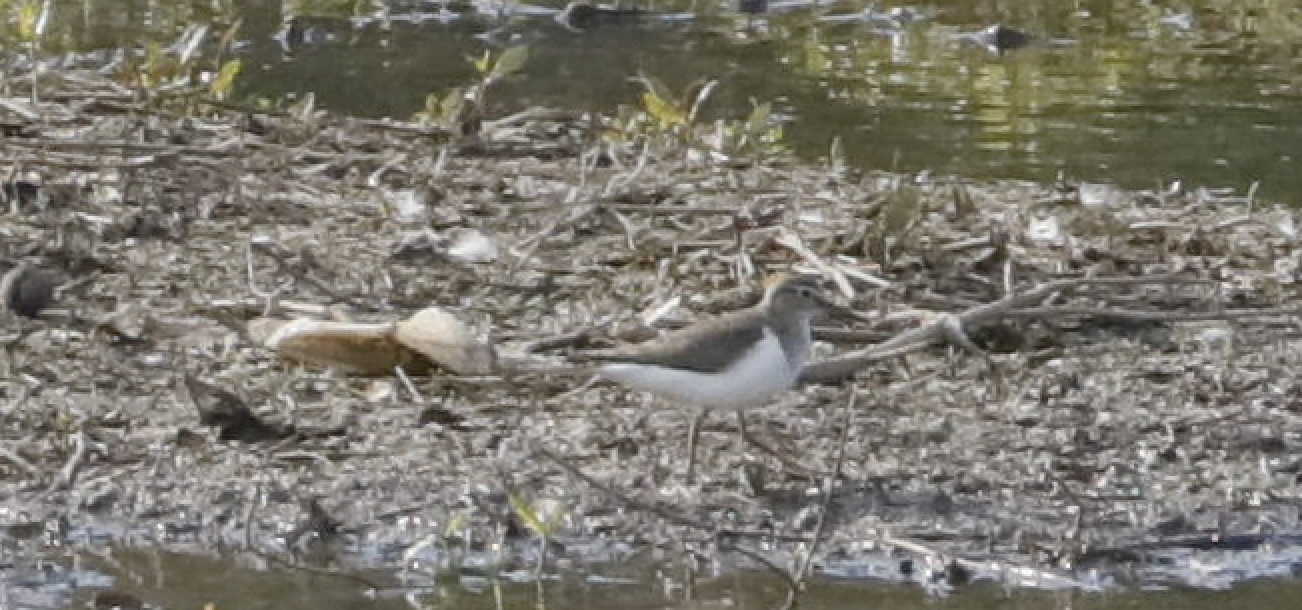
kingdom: Animalia
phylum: Chordata
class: Aves
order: Charadriiformes
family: Scolopacidae
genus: Actitis
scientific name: Actitis hypoleucos
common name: Common sandpiper
